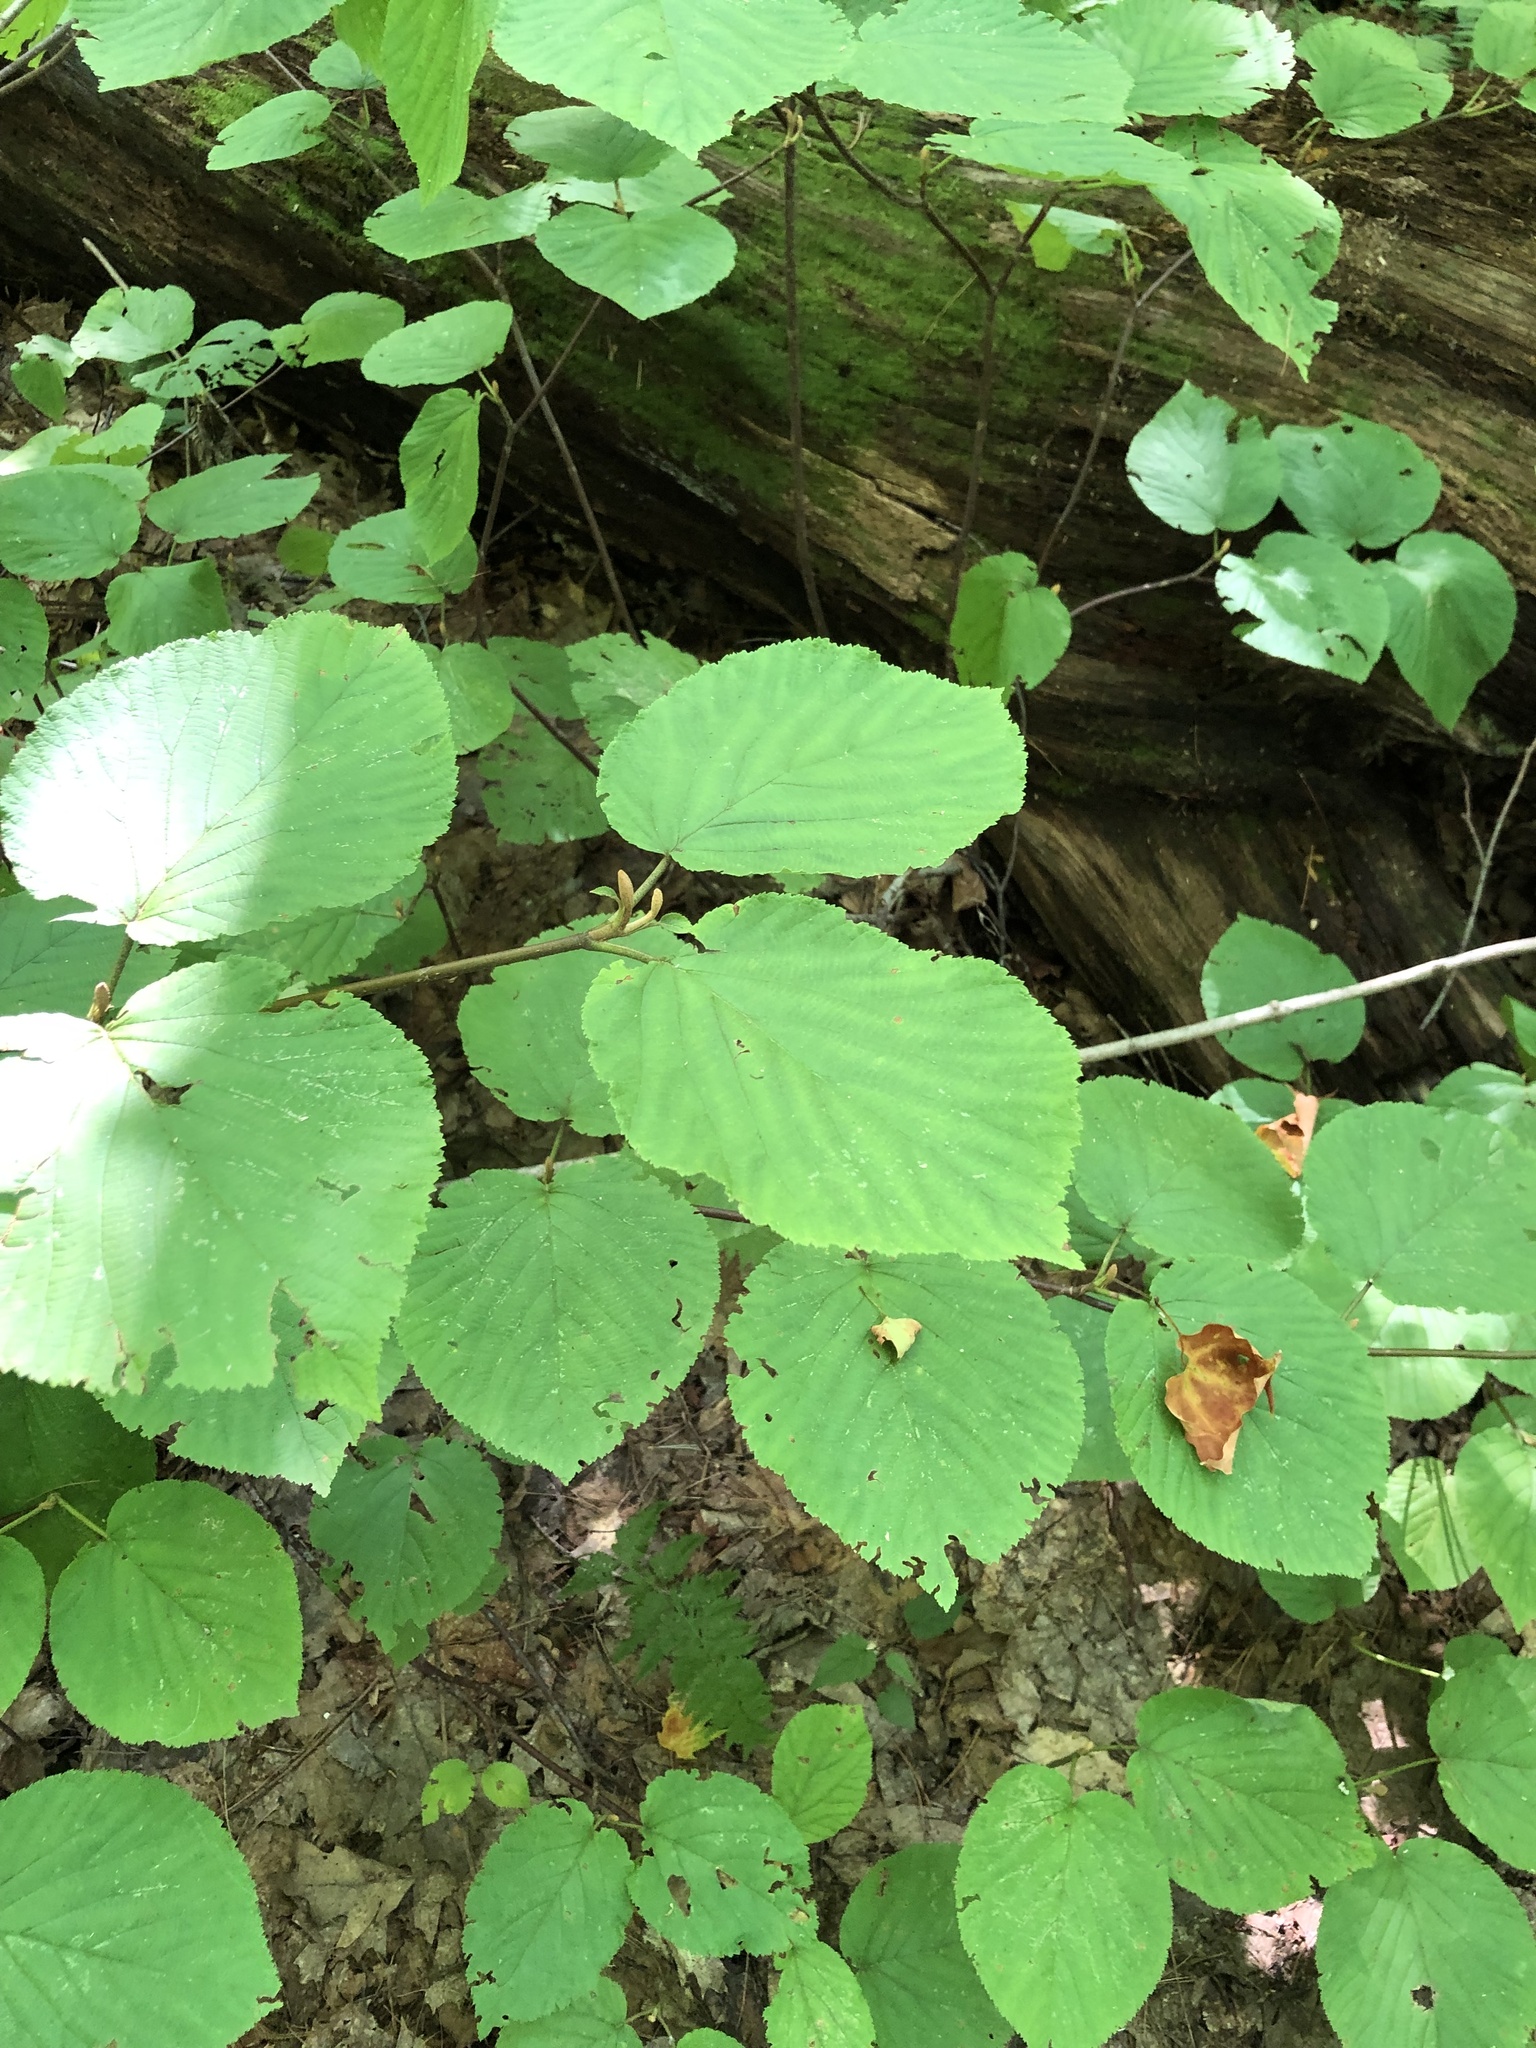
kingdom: Plantae
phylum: Tracheophyta
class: Magnoliopsida
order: Dipsacales
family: Viburnaceae
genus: Viburnum
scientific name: Viburnum lantanoides
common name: Hobblebush
